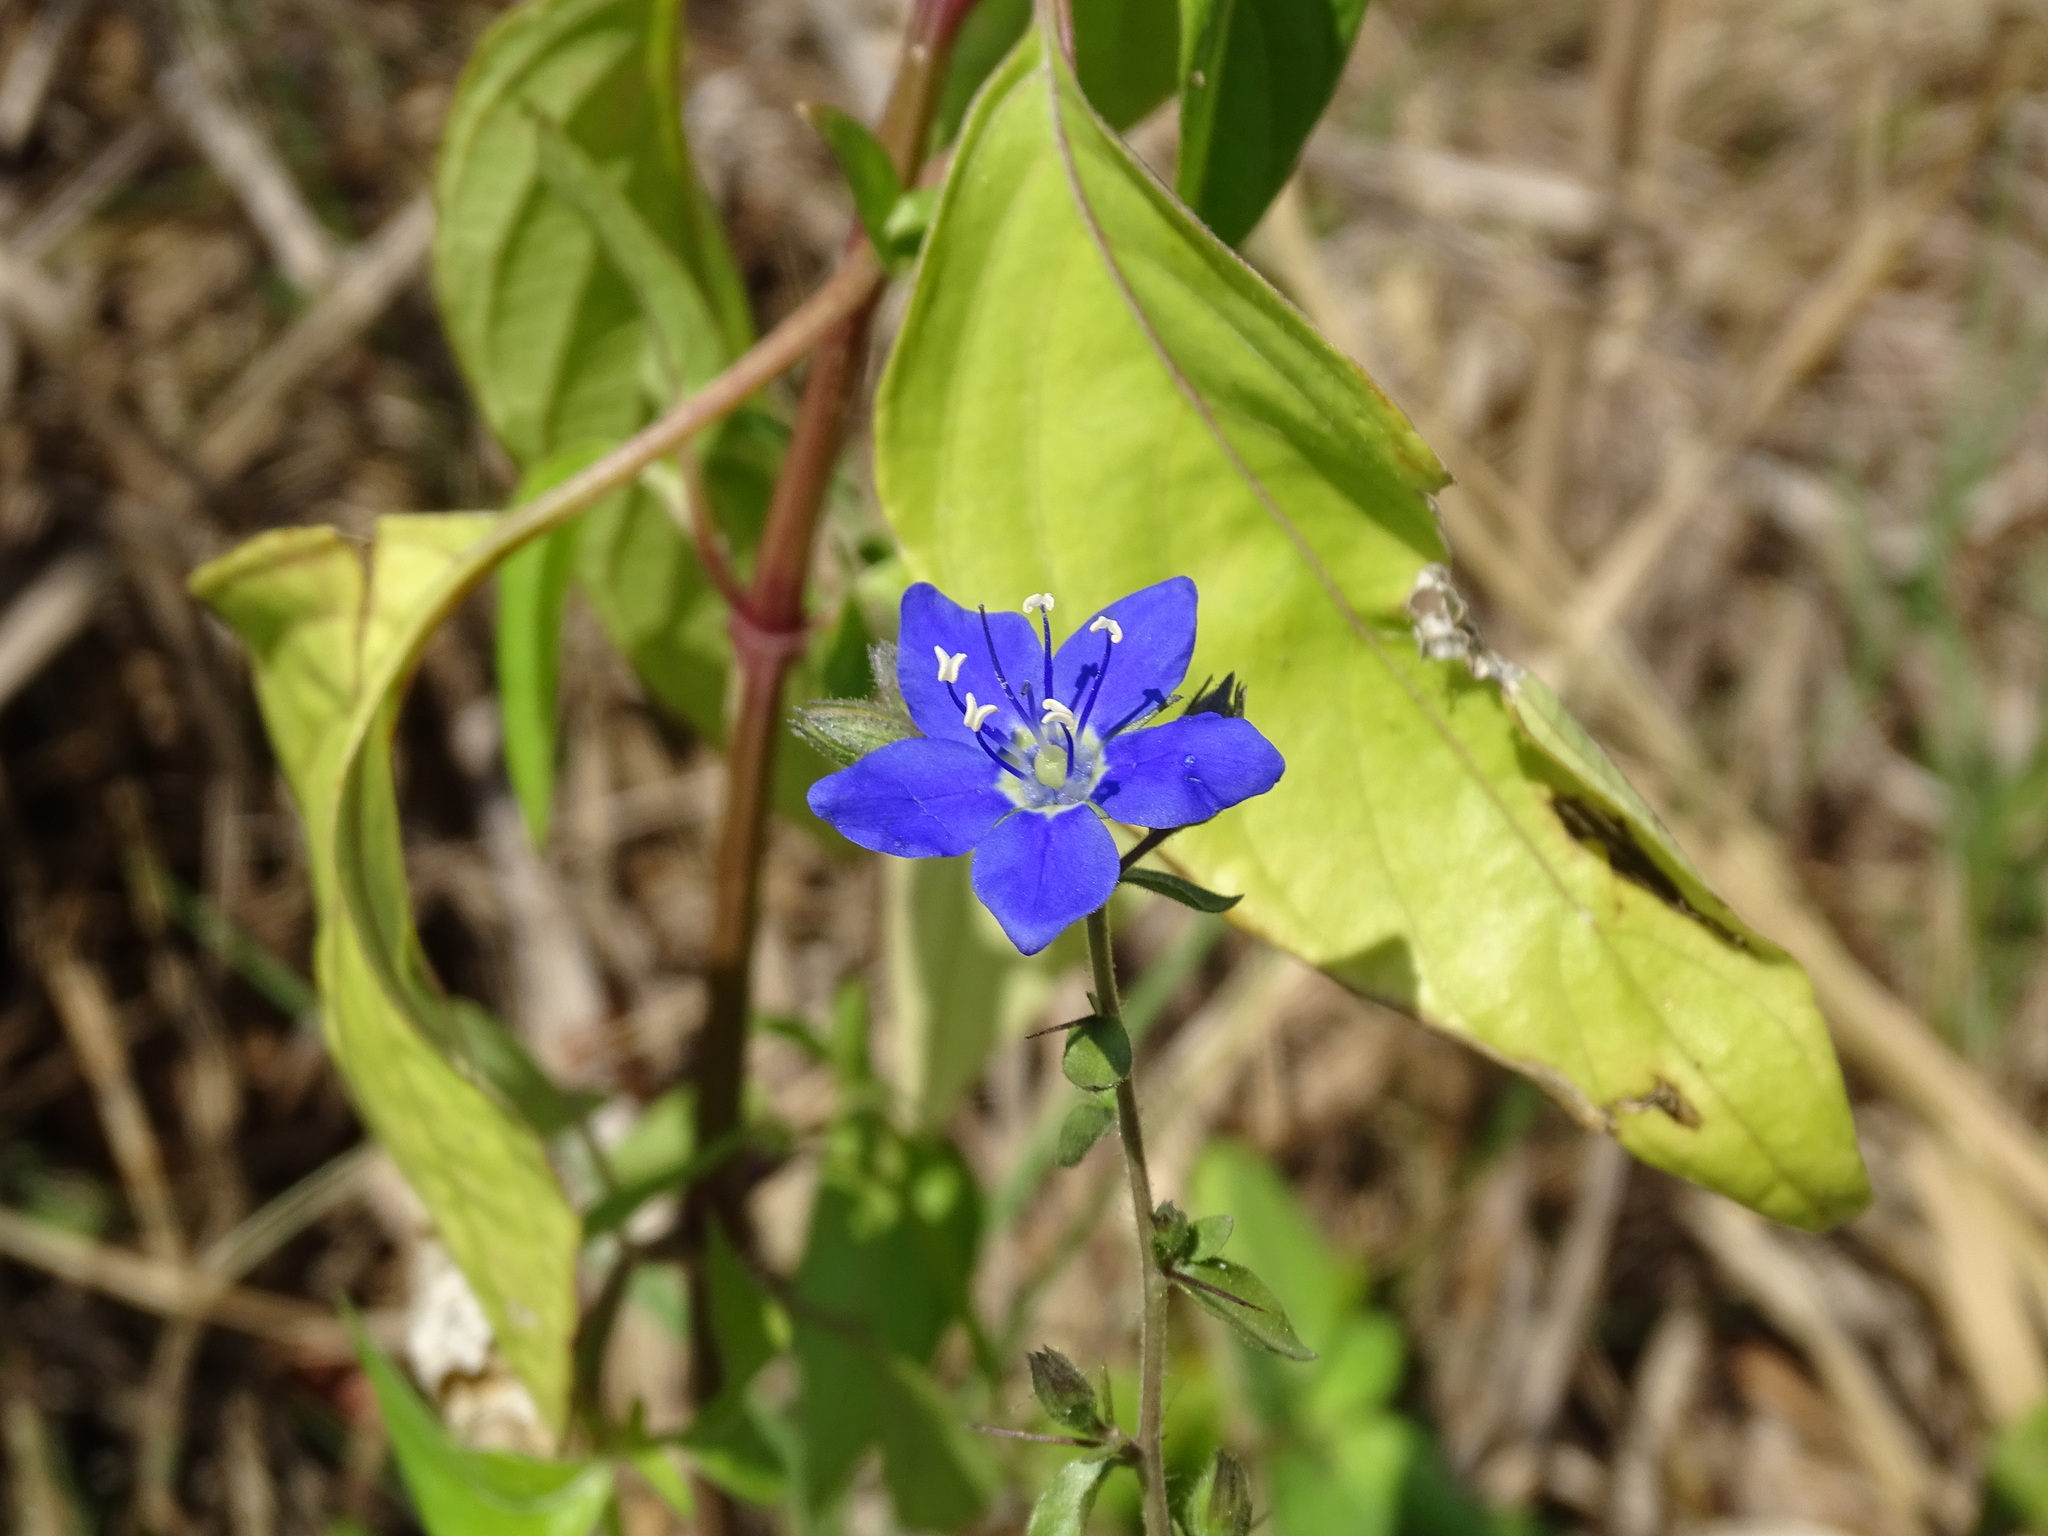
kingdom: Plantae
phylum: Tracheophyta
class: Magnoliopsida
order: Solanales
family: Hydroleaceae
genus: Hydrolea
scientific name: Hydrolea spinosa
